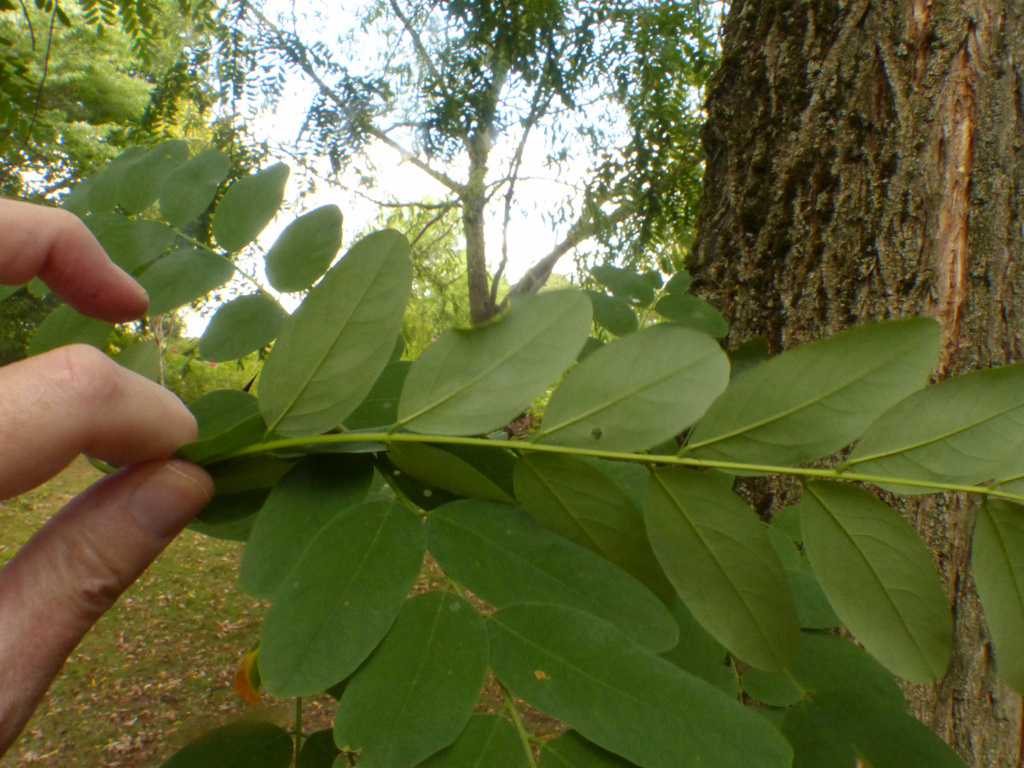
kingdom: Animalia
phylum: Arthropoda
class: Insecta
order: Diptera
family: Cecidomyiidae
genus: Obolodiplosis
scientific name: Obolodiplosis robiniae
